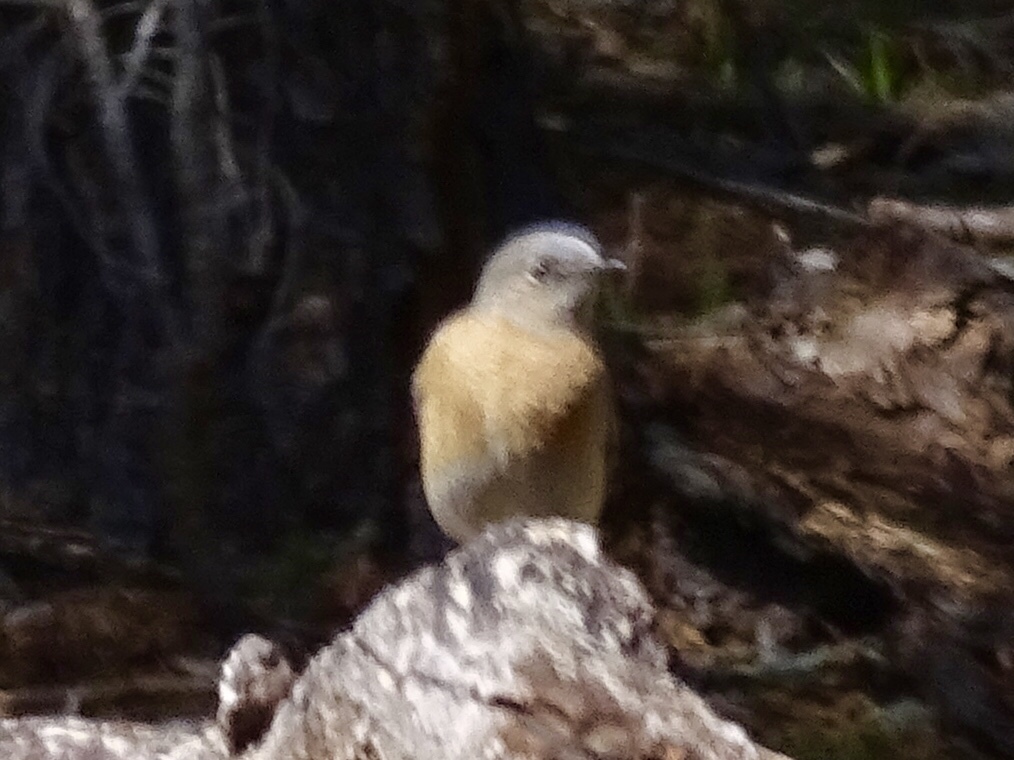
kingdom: Animalia
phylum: Chordata
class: Aves
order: Passeriformes
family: Turdidae
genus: Sialia
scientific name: Sialia mexicana
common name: Western bluebird
